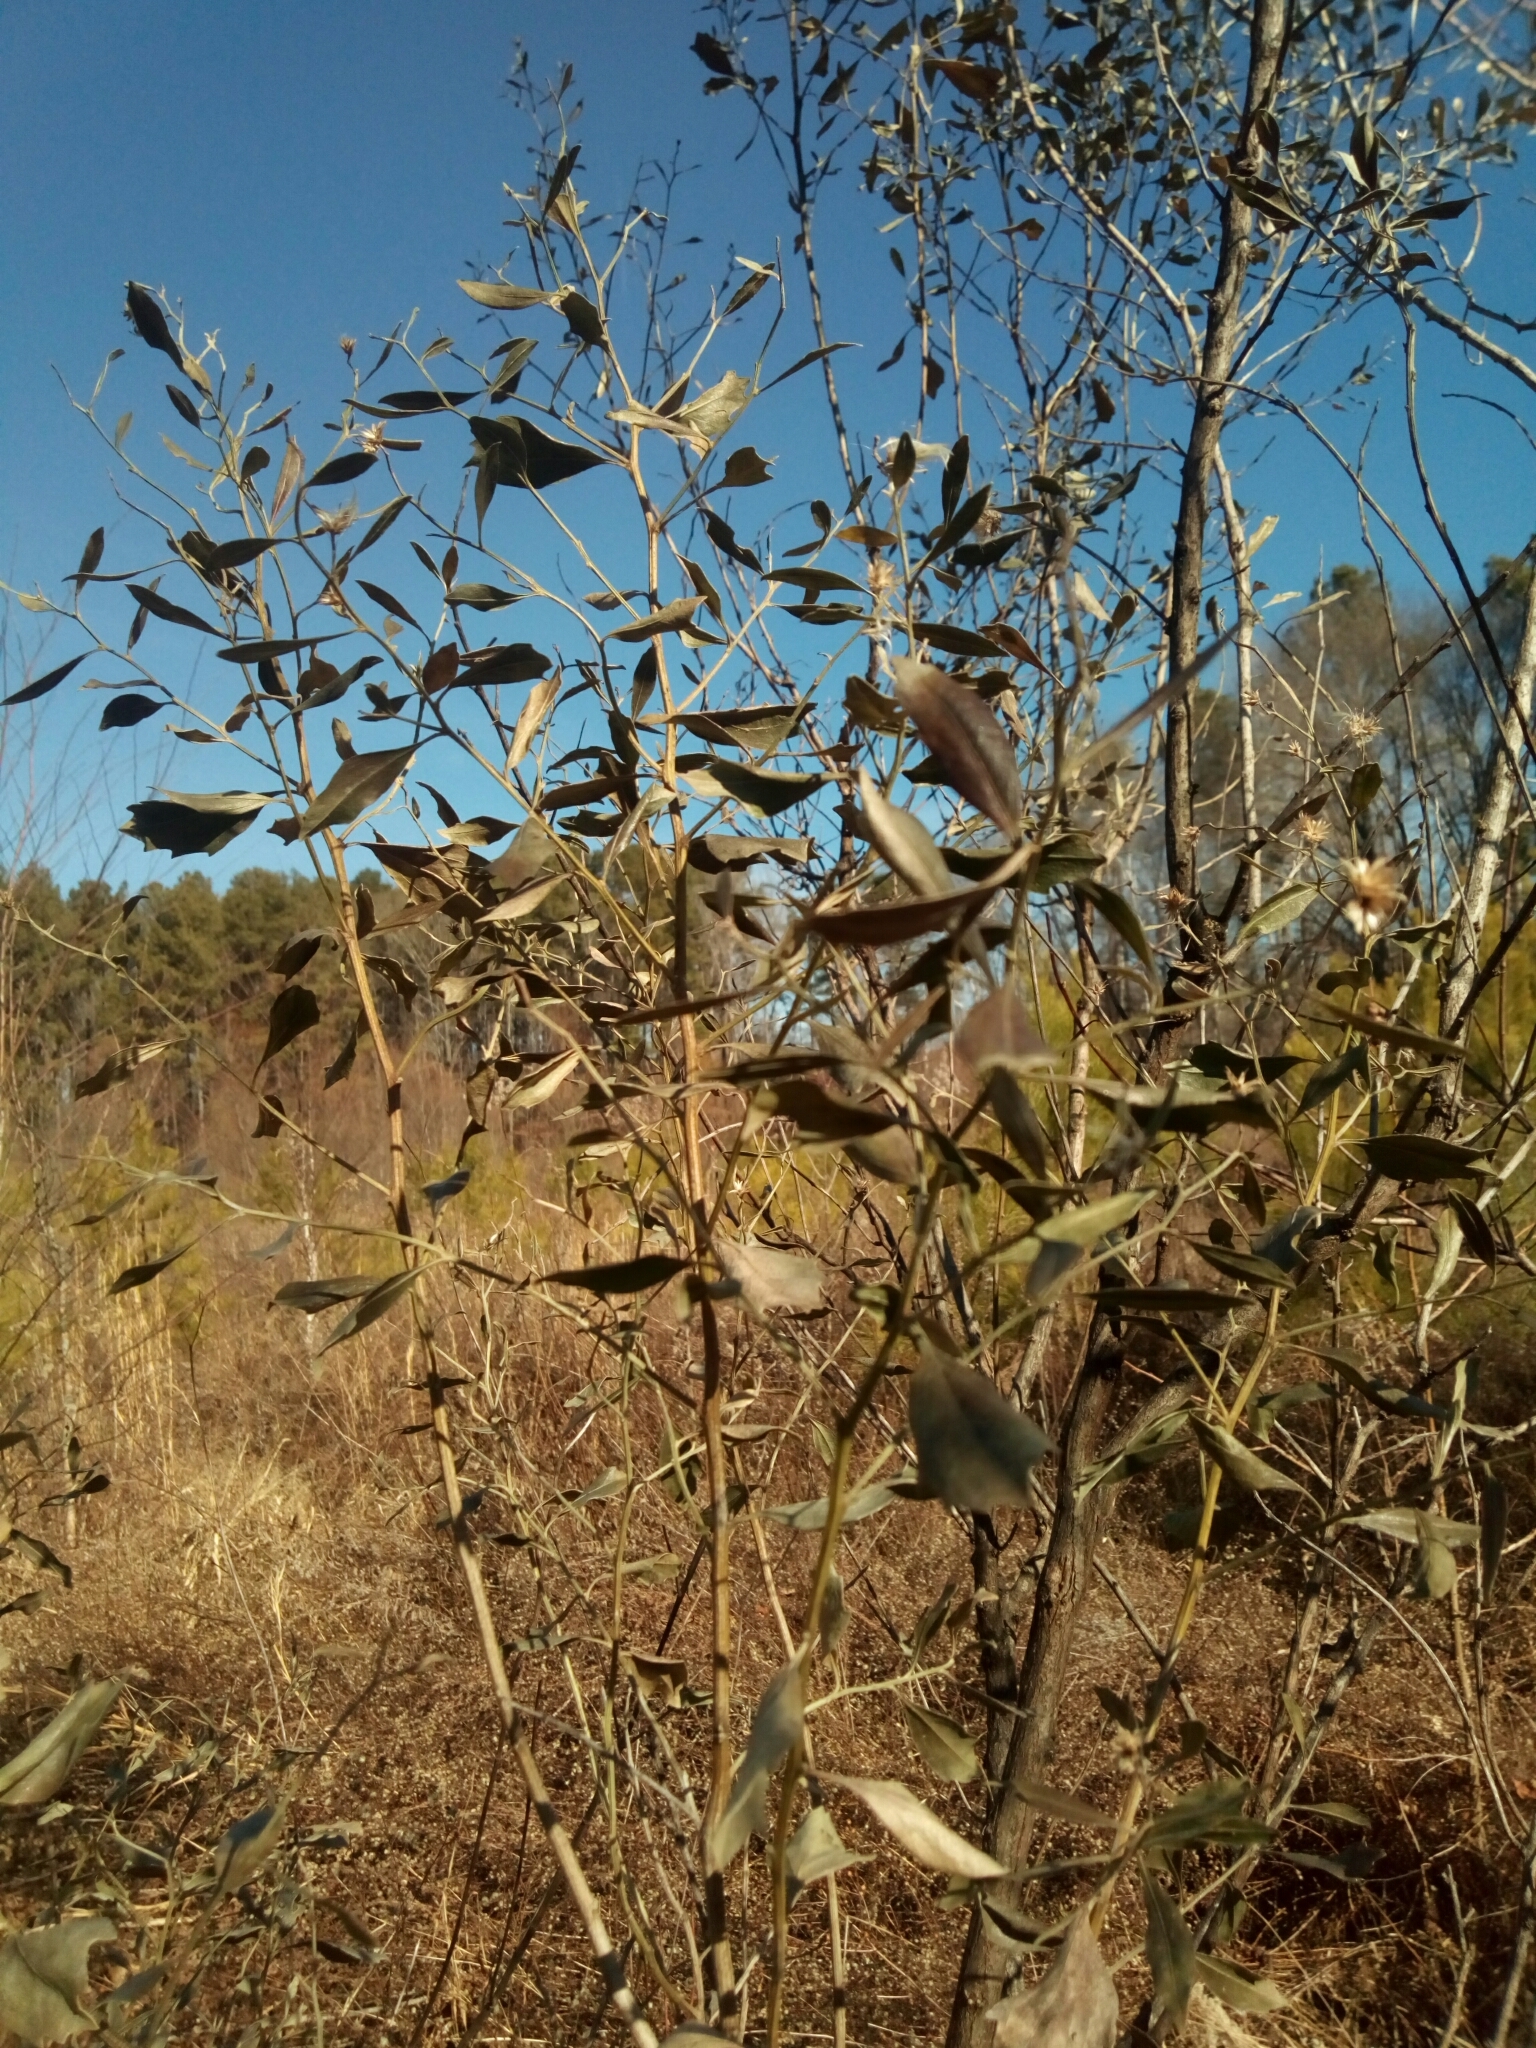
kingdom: Plantae
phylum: Tracheophyta
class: Magnoliopsida
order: Asterales
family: Asteraceae
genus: Baccharis
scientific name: Baccharis halimifolia
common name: Eastern baccharis
